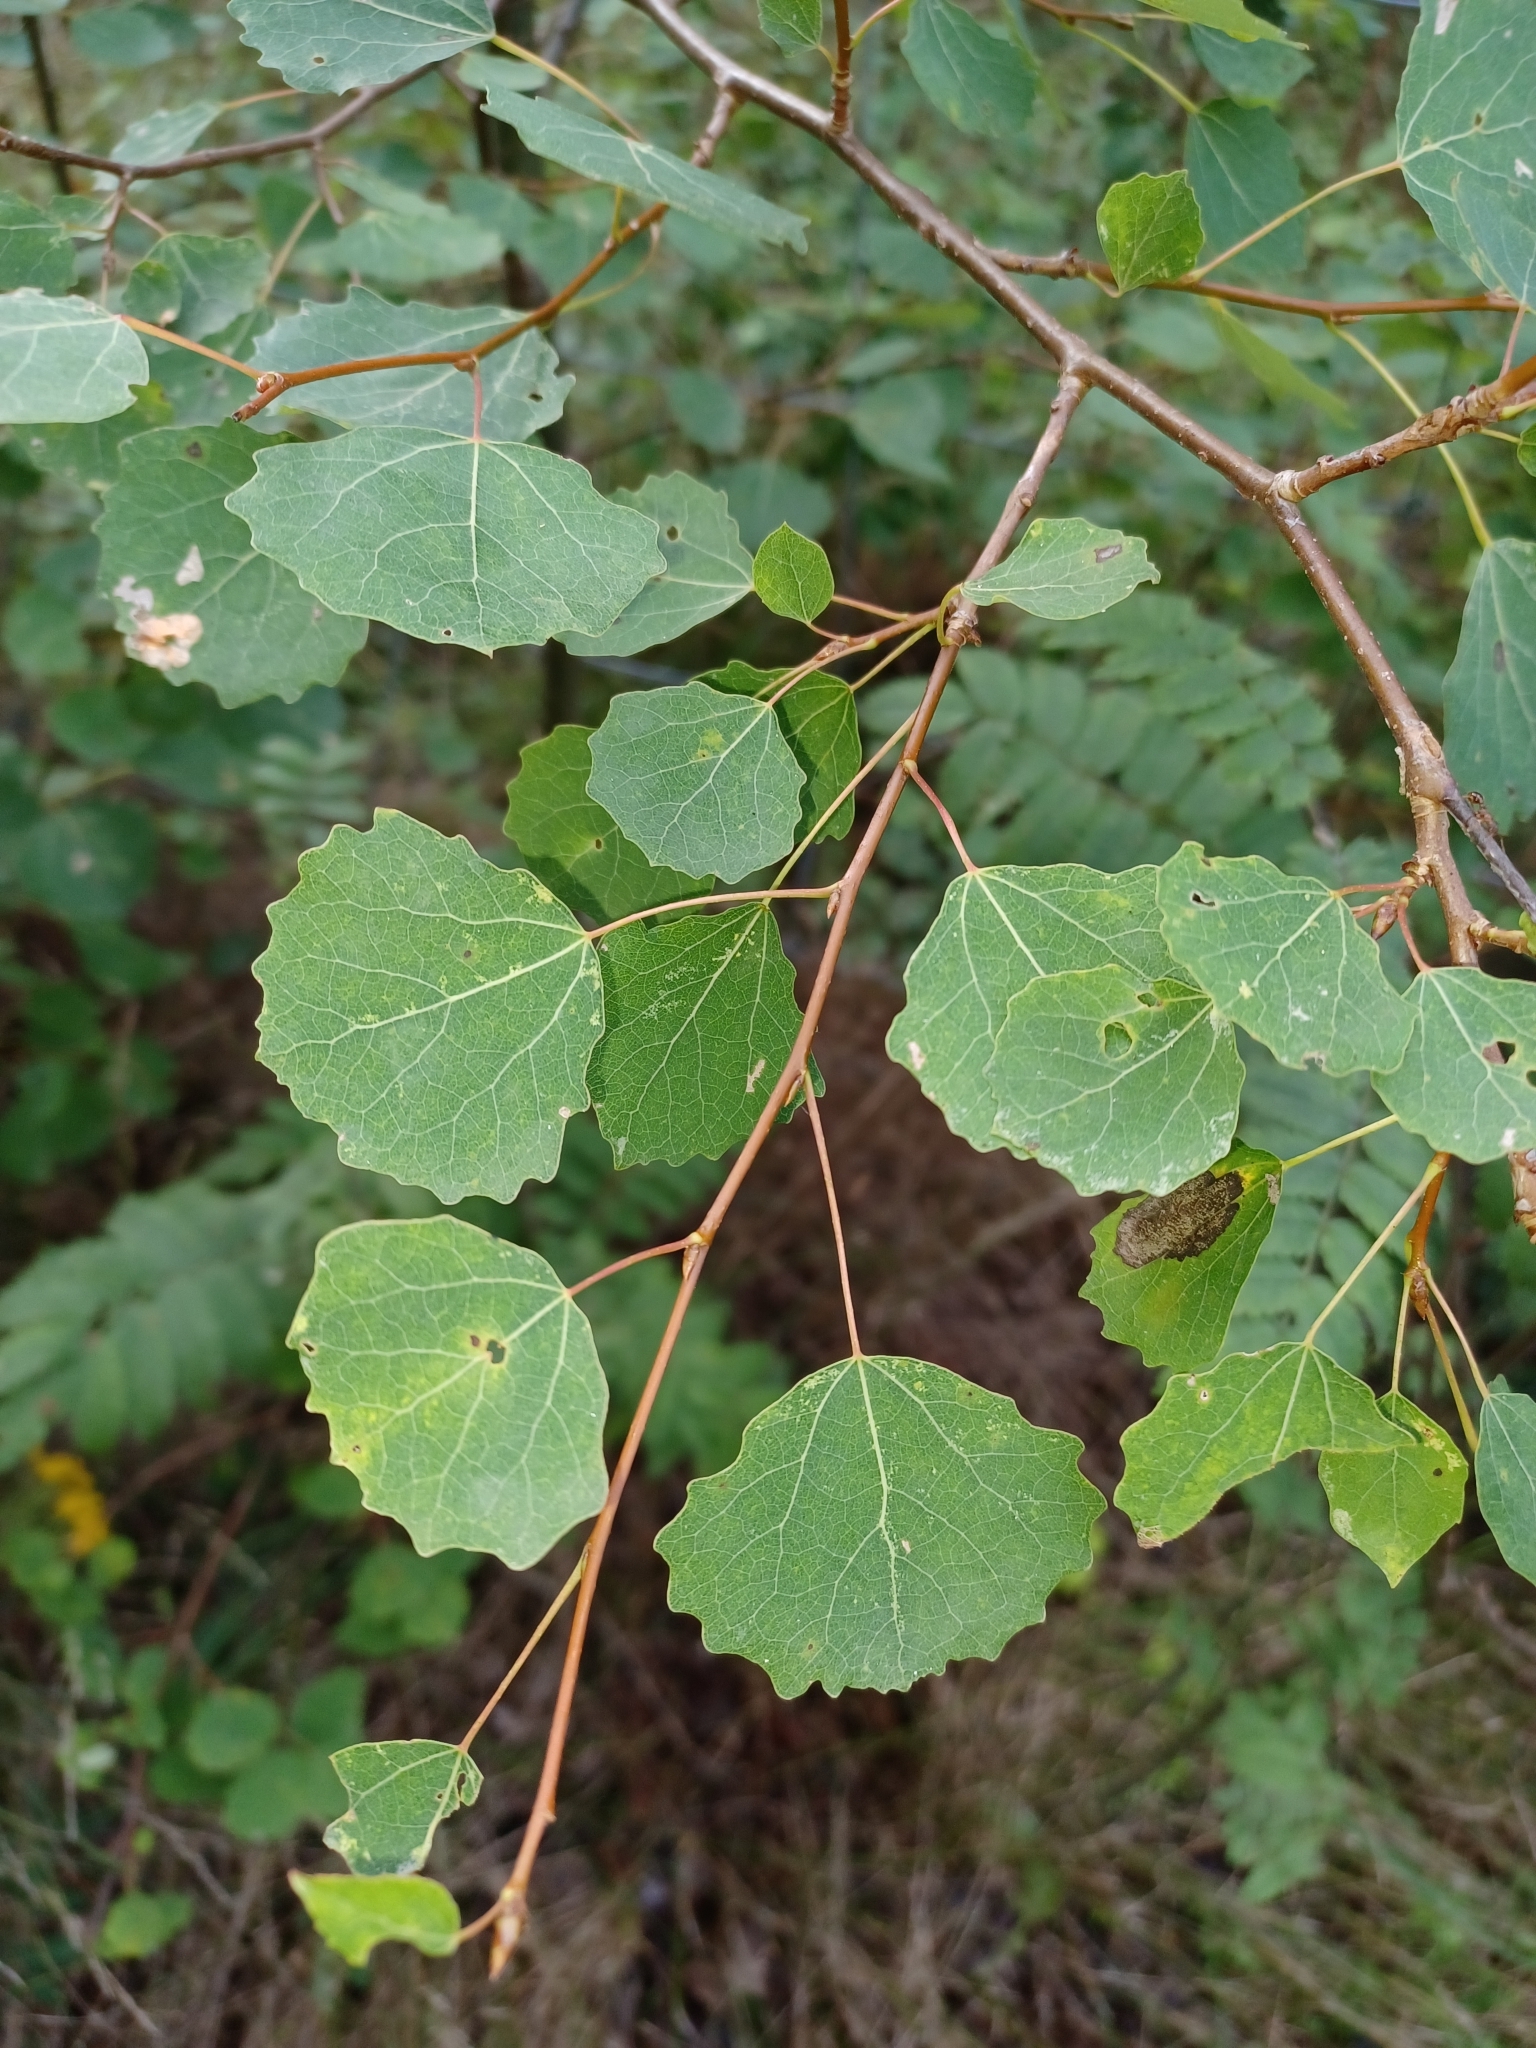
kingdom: Plantae
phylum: Tracheophyta
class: Magnoliopsida
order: Malpighiales
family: Salicaceae
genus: Populus
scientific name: Populus tremula
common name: European aspen
